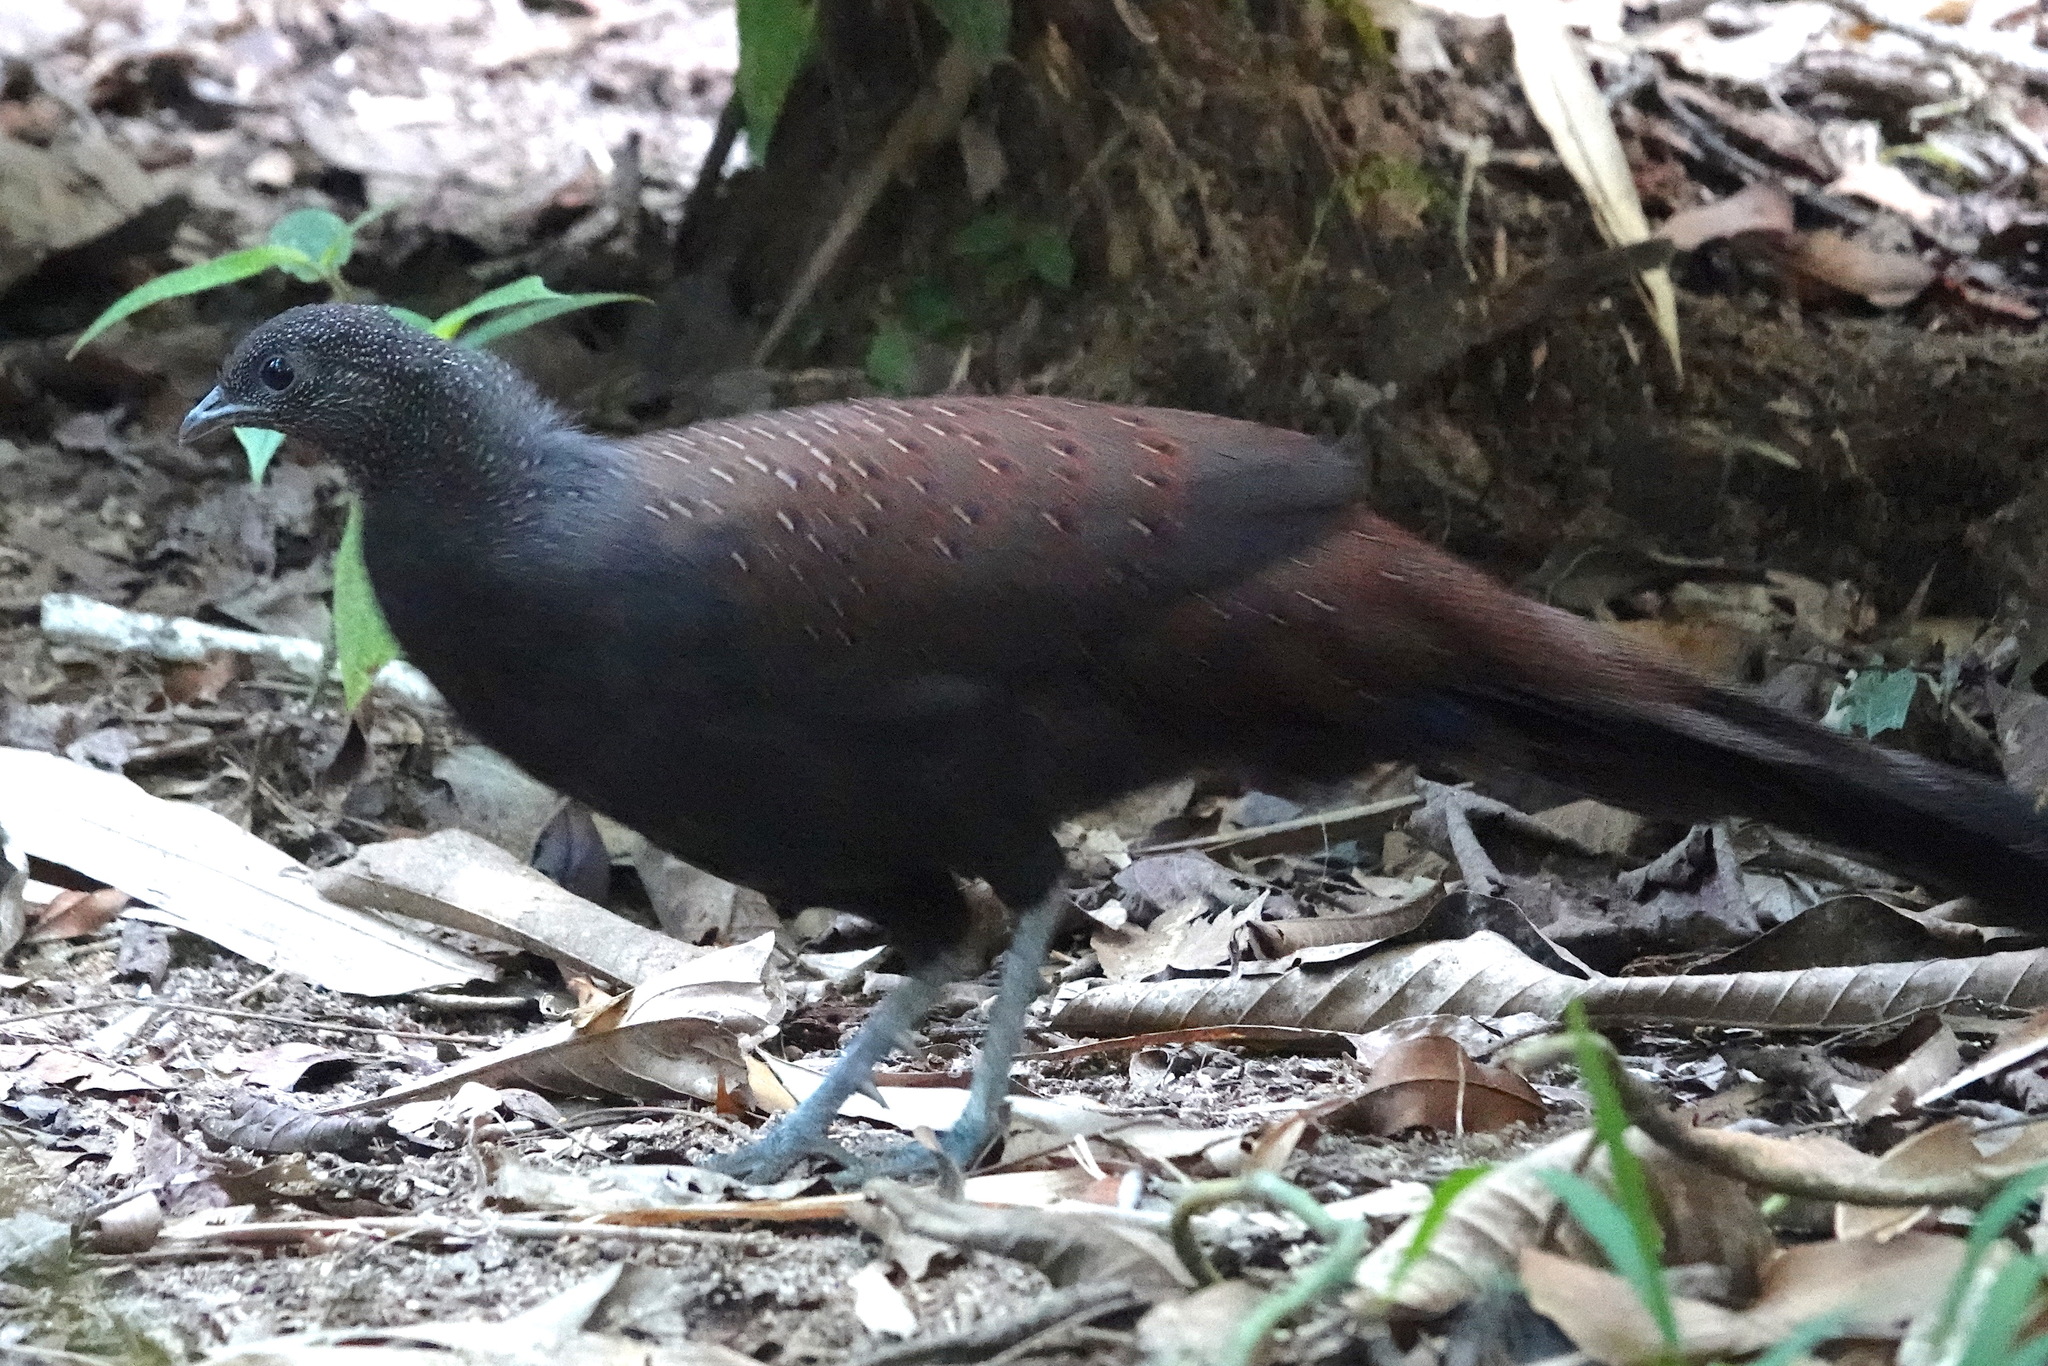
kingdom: Animalia
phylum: Chordata
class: Aves
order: Galliformes
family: Phasianidae
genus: Polyplectron
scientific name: Polyplectron inopinatum
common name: Mountain peacock-pheasant
